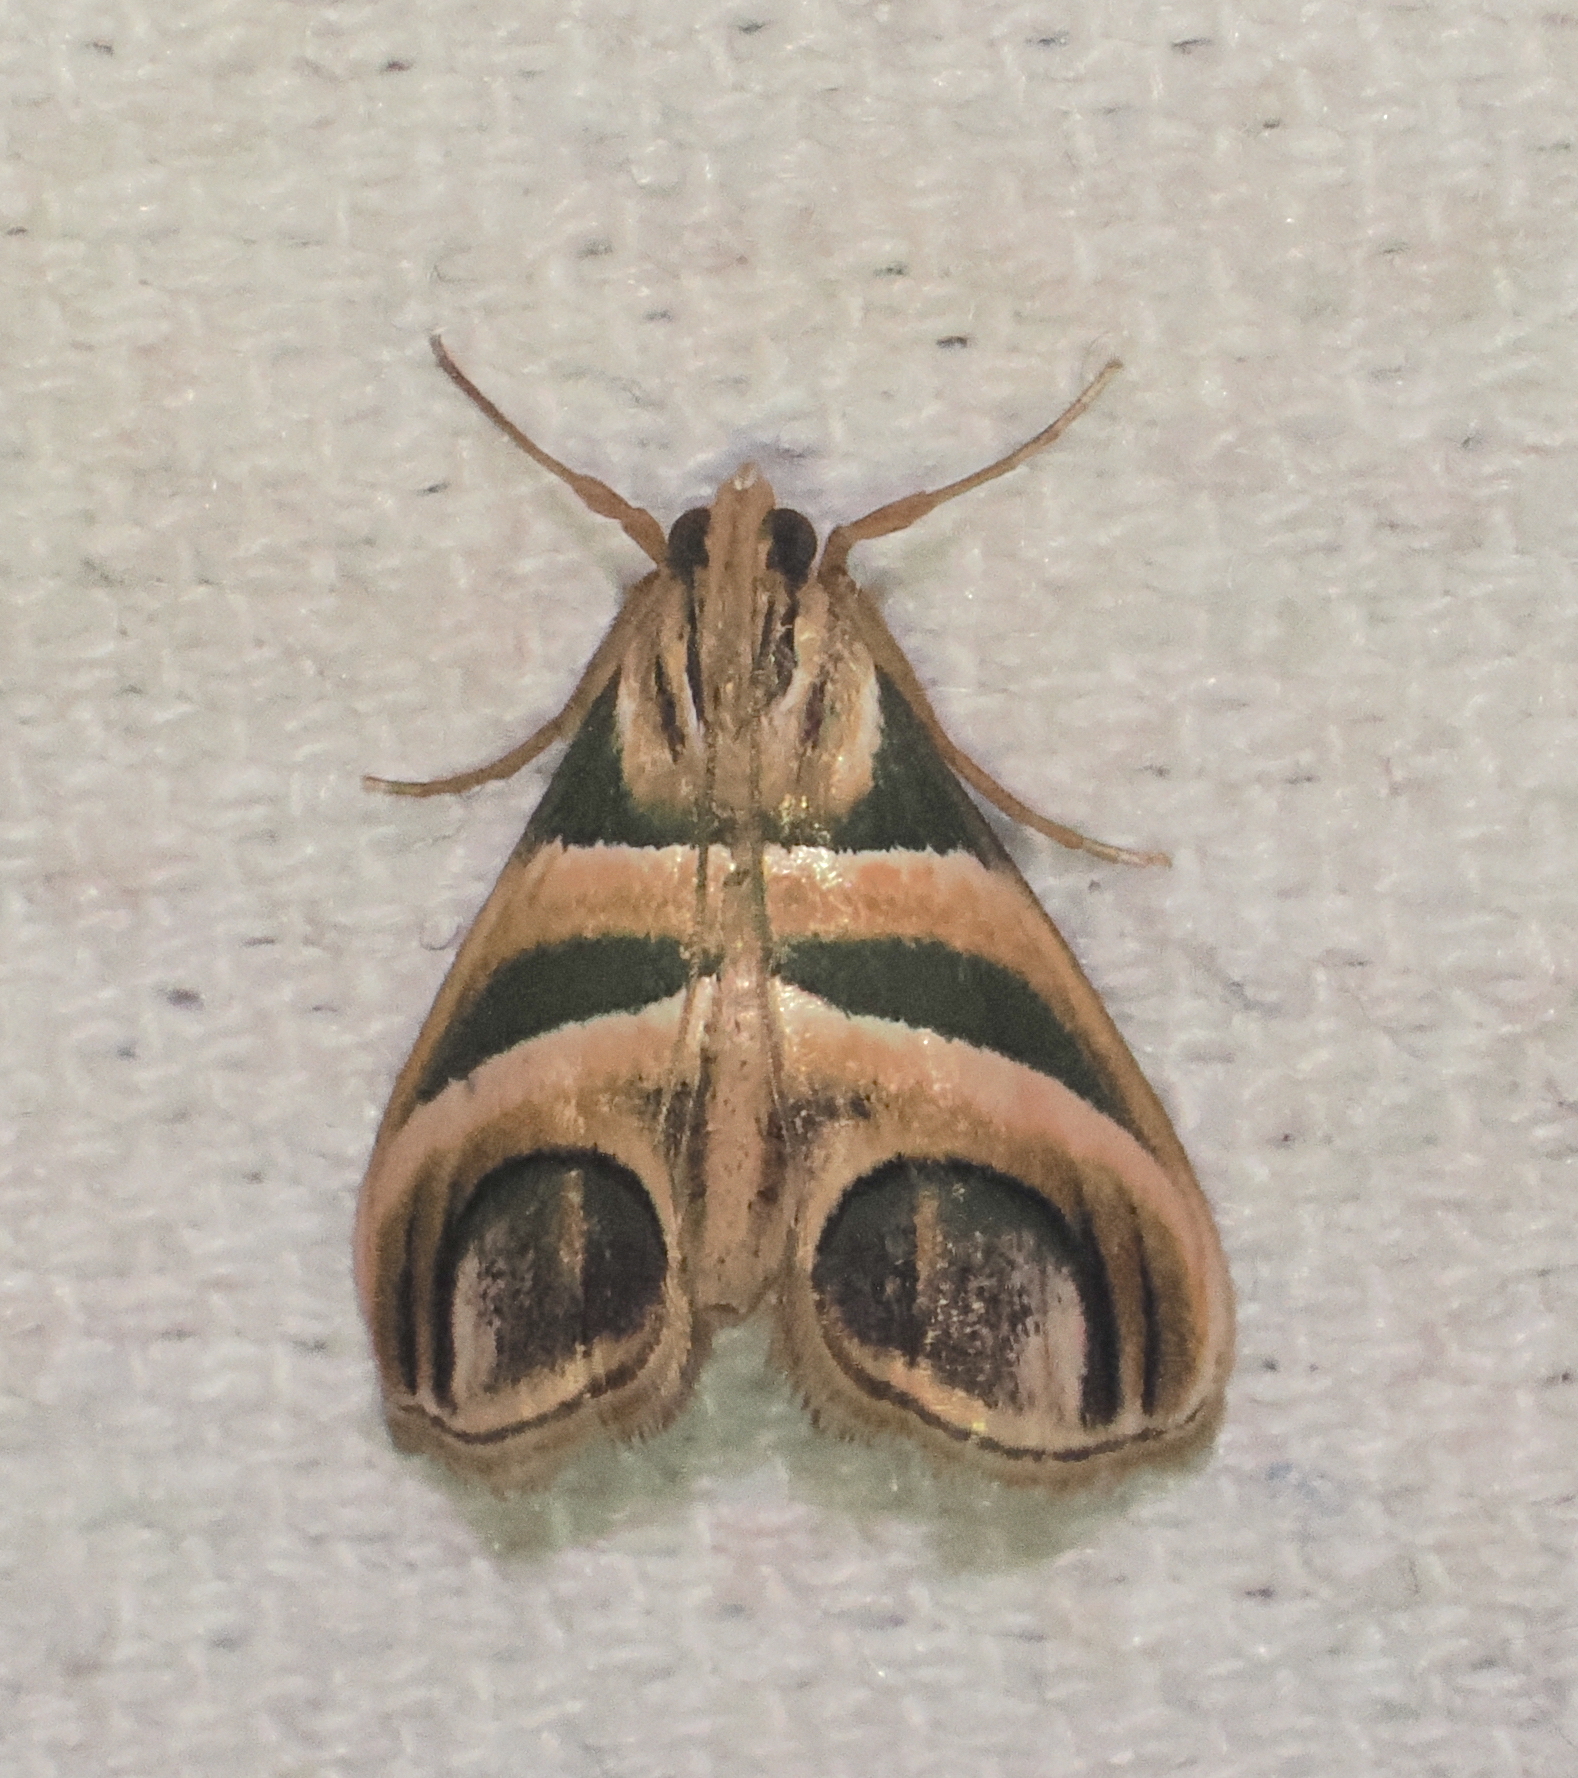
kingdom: Animalia
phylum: Arthropoda
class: Insecta
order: Lepidoptera
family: Pyralidae
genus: Incarcha
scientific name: Incarcha argentilinea
